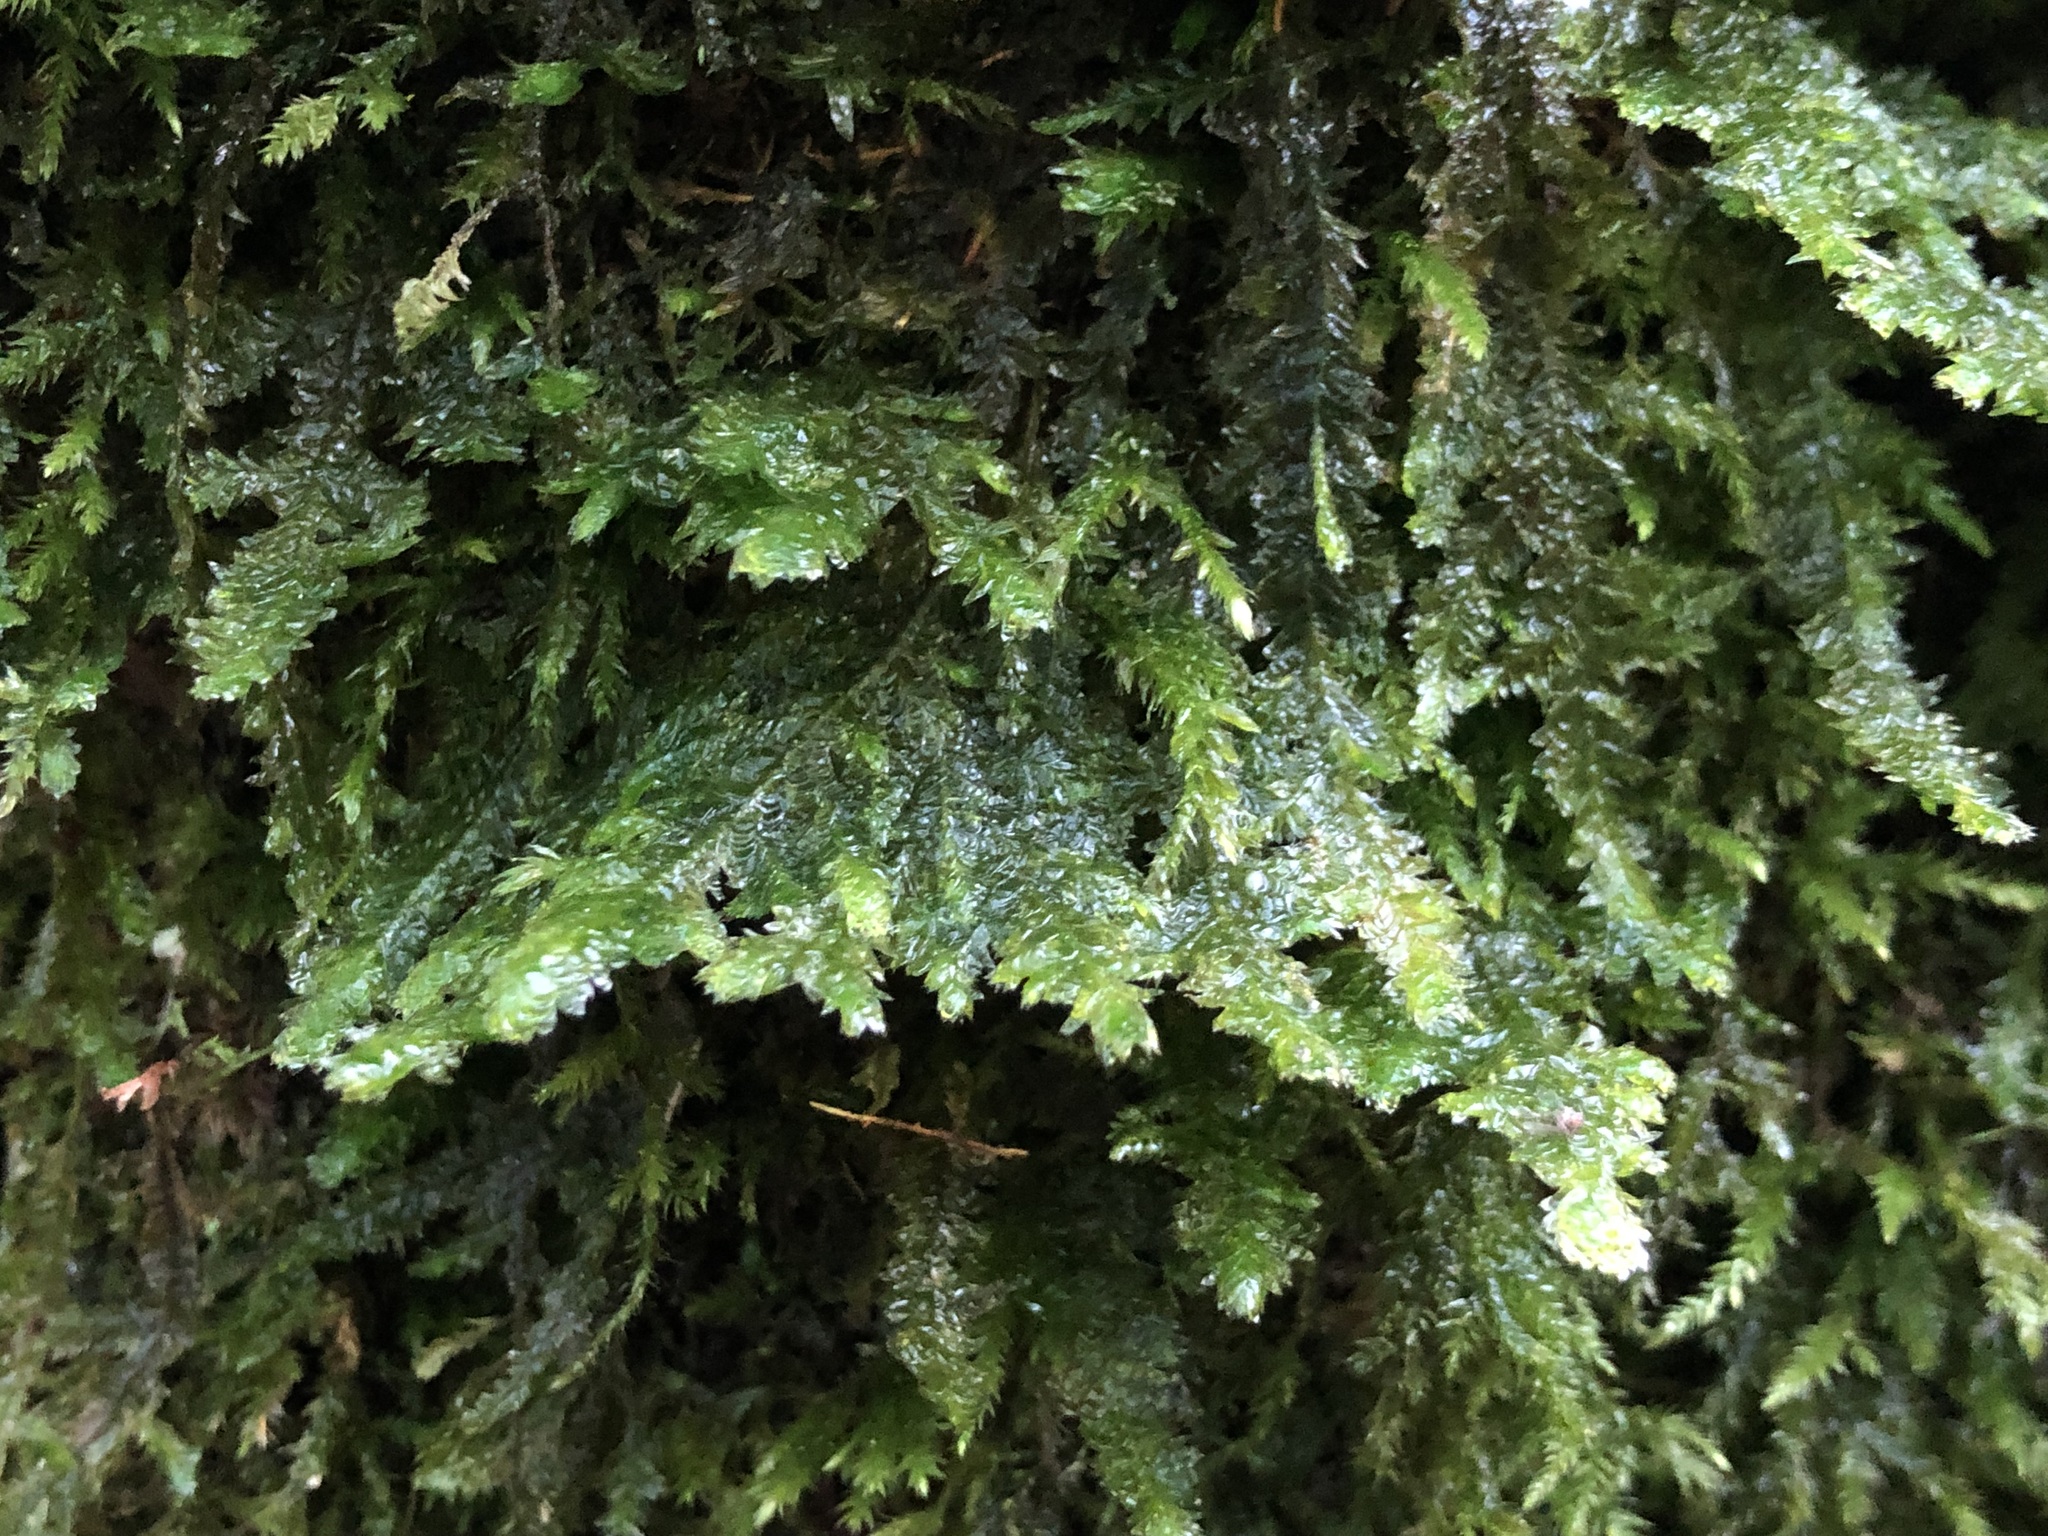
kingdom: Plantae
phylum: Bryophyta
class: Bryopsida
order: Hypnales
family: Neckeraceae
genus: Exsertotheca
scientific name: Exsertotheca crispa
